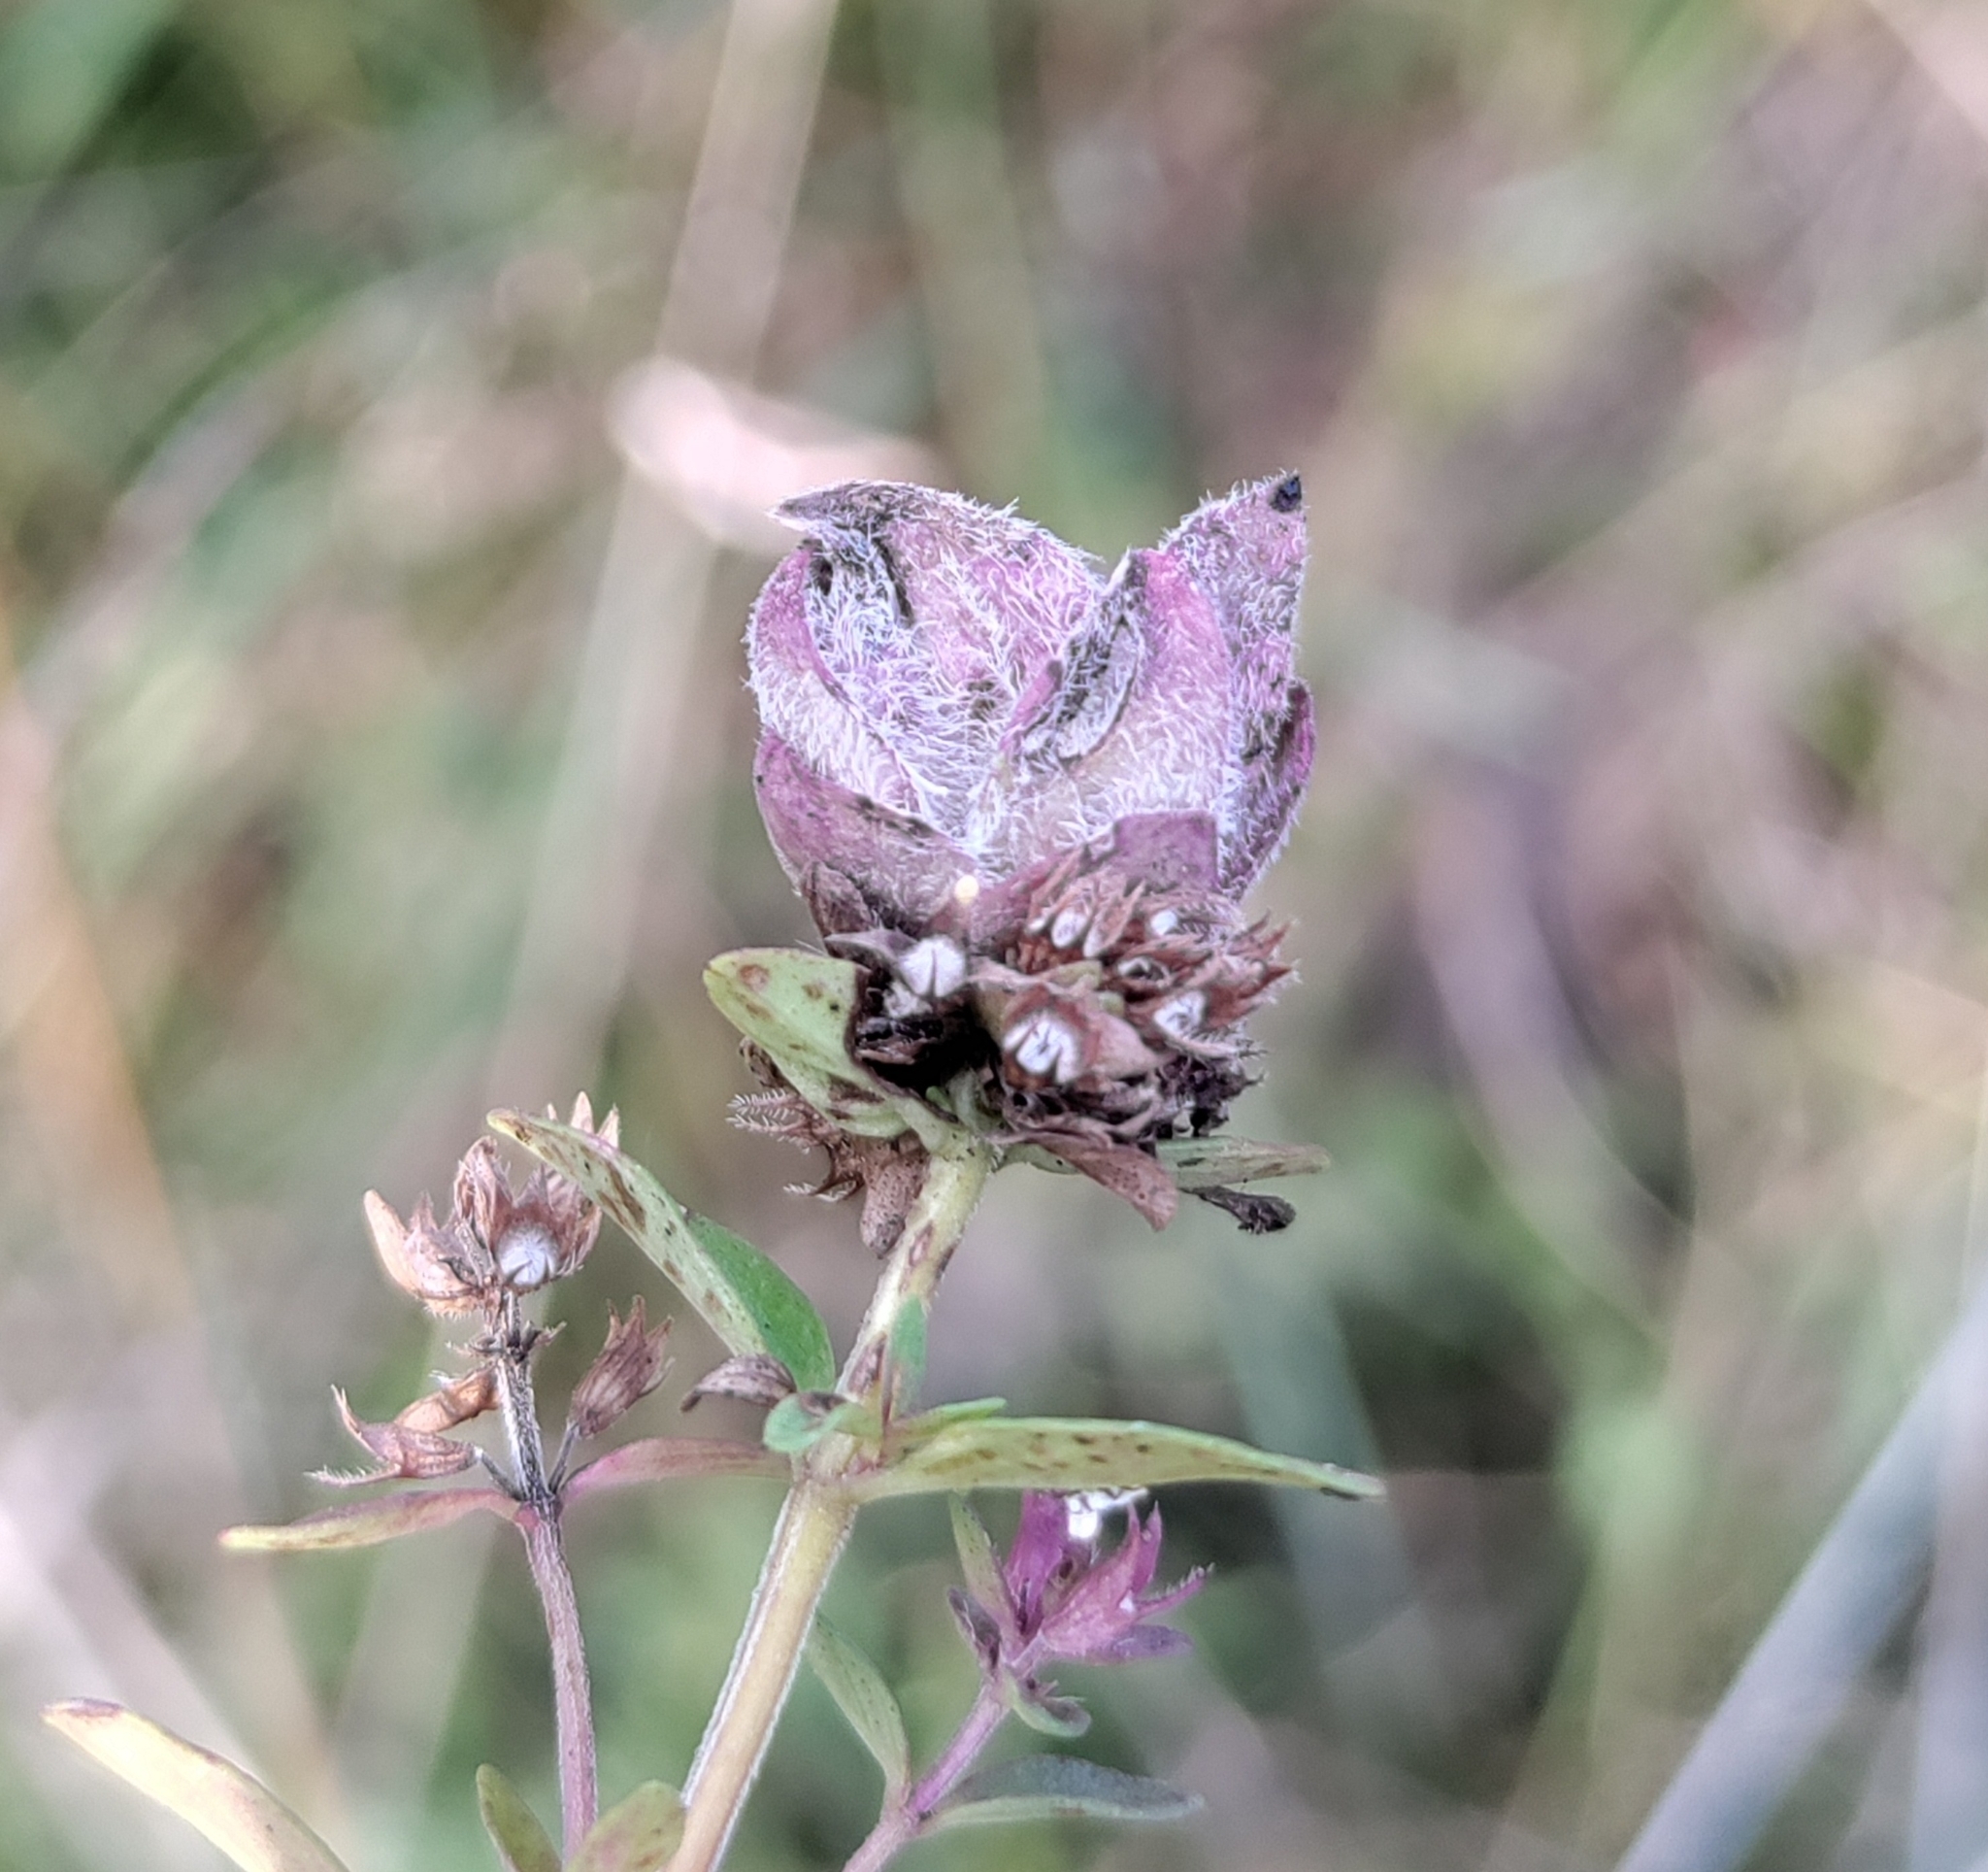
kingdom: Animalia
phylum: Arthropoda
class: Insecta
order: Diptera
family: Cecidomyiidae
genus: Bayeriola
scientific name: Bayeriola thymicola
